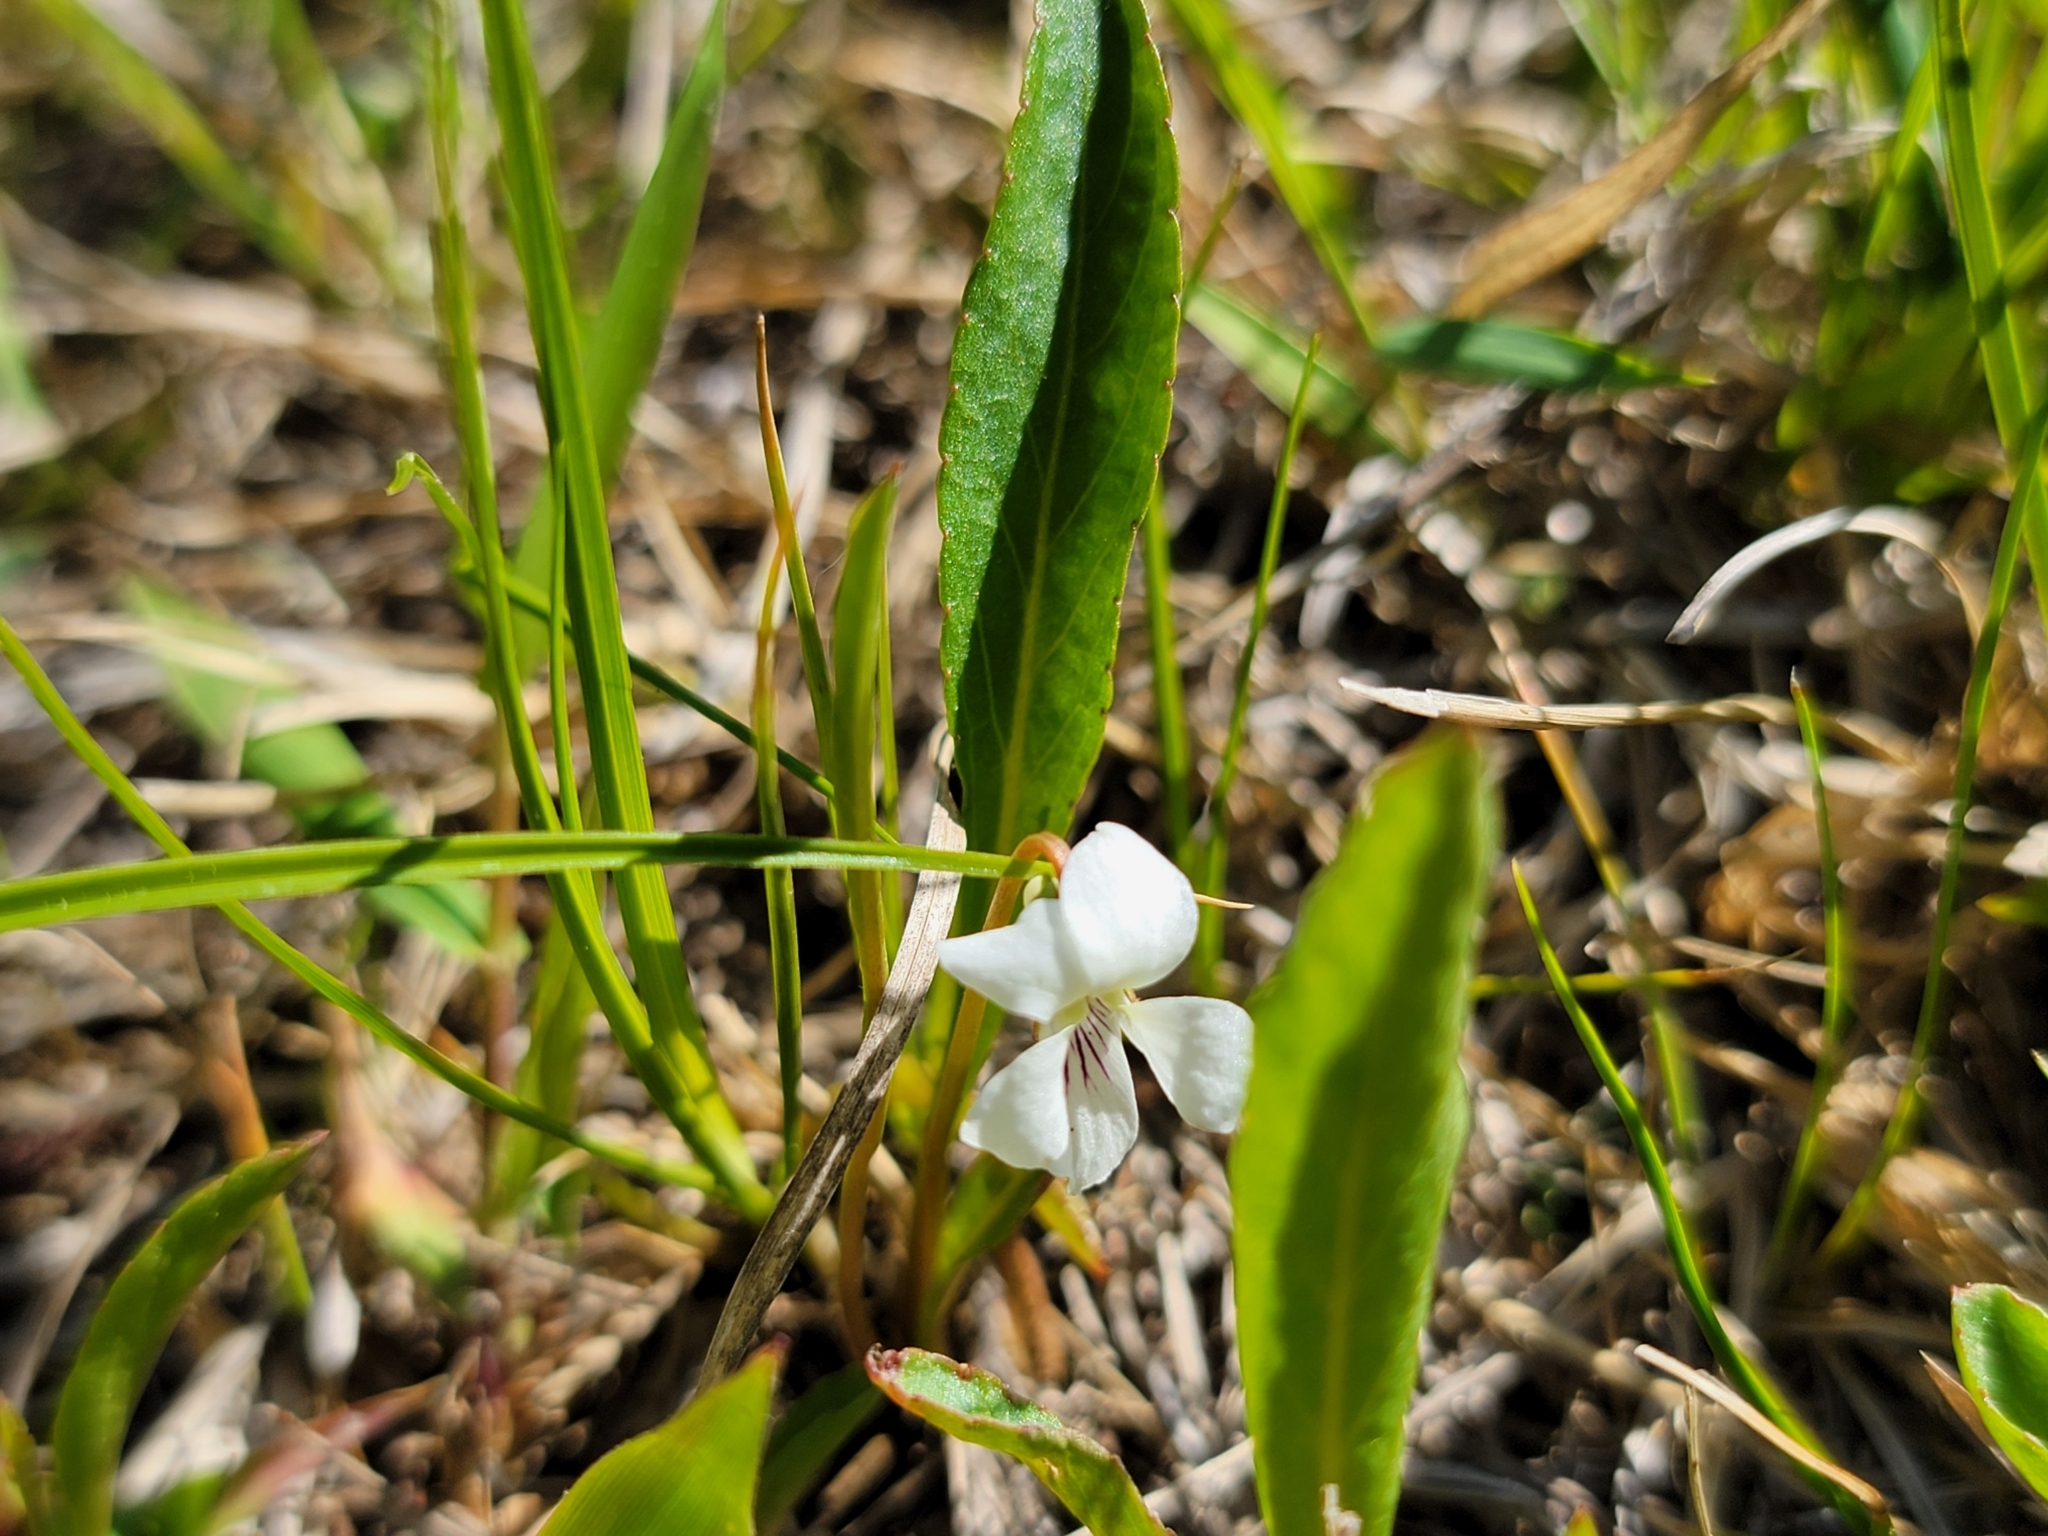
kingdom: Plantae
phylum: Tracheophyta
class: Magnoliopsida
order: Malpighiales
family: Violaceae
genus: Viola
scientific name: Viola lanceolata
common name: Bog white violet
